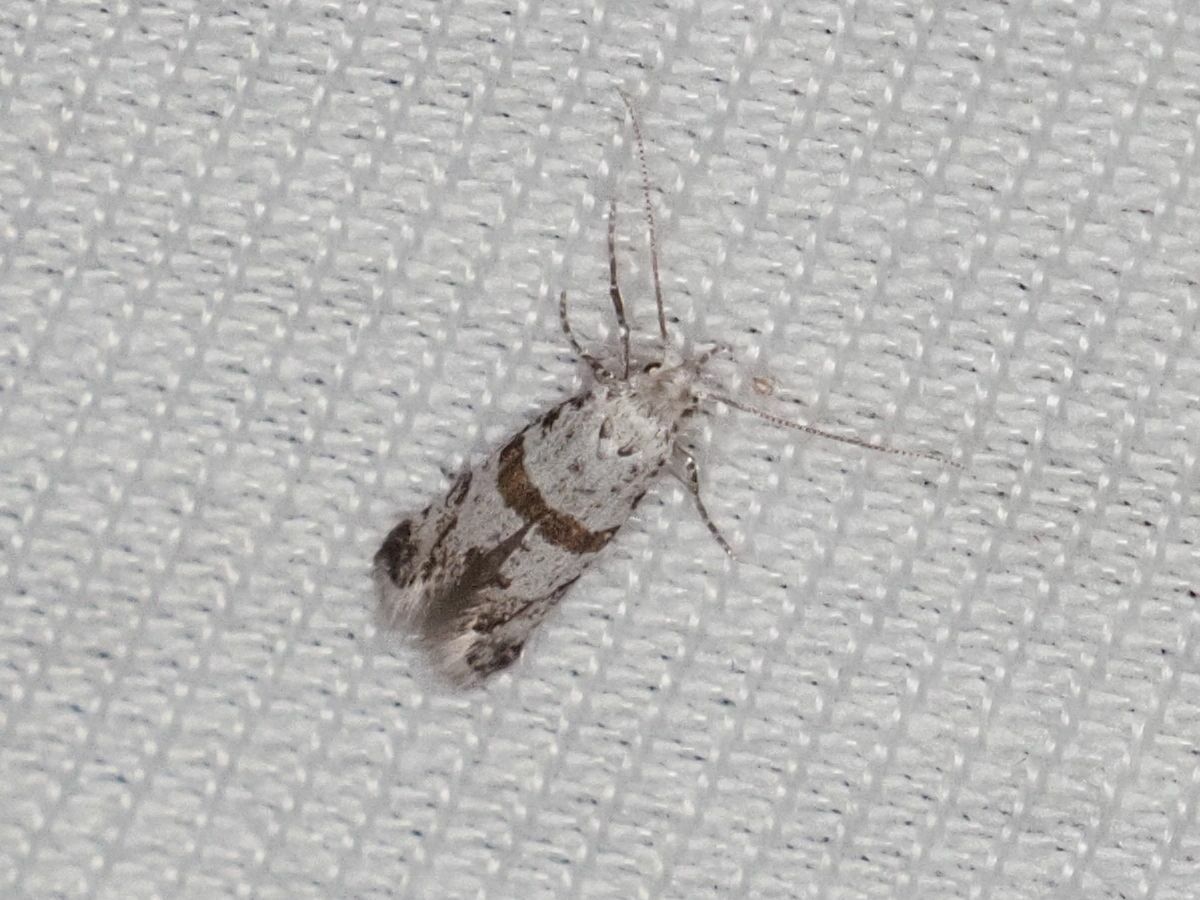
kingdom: Animalia
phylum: Arthropoda
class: Insecta
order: Lepidoptera
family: Yponomeutidae
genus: Scythropia
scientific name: Scythropia crataegella
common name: Hawthorn moth
